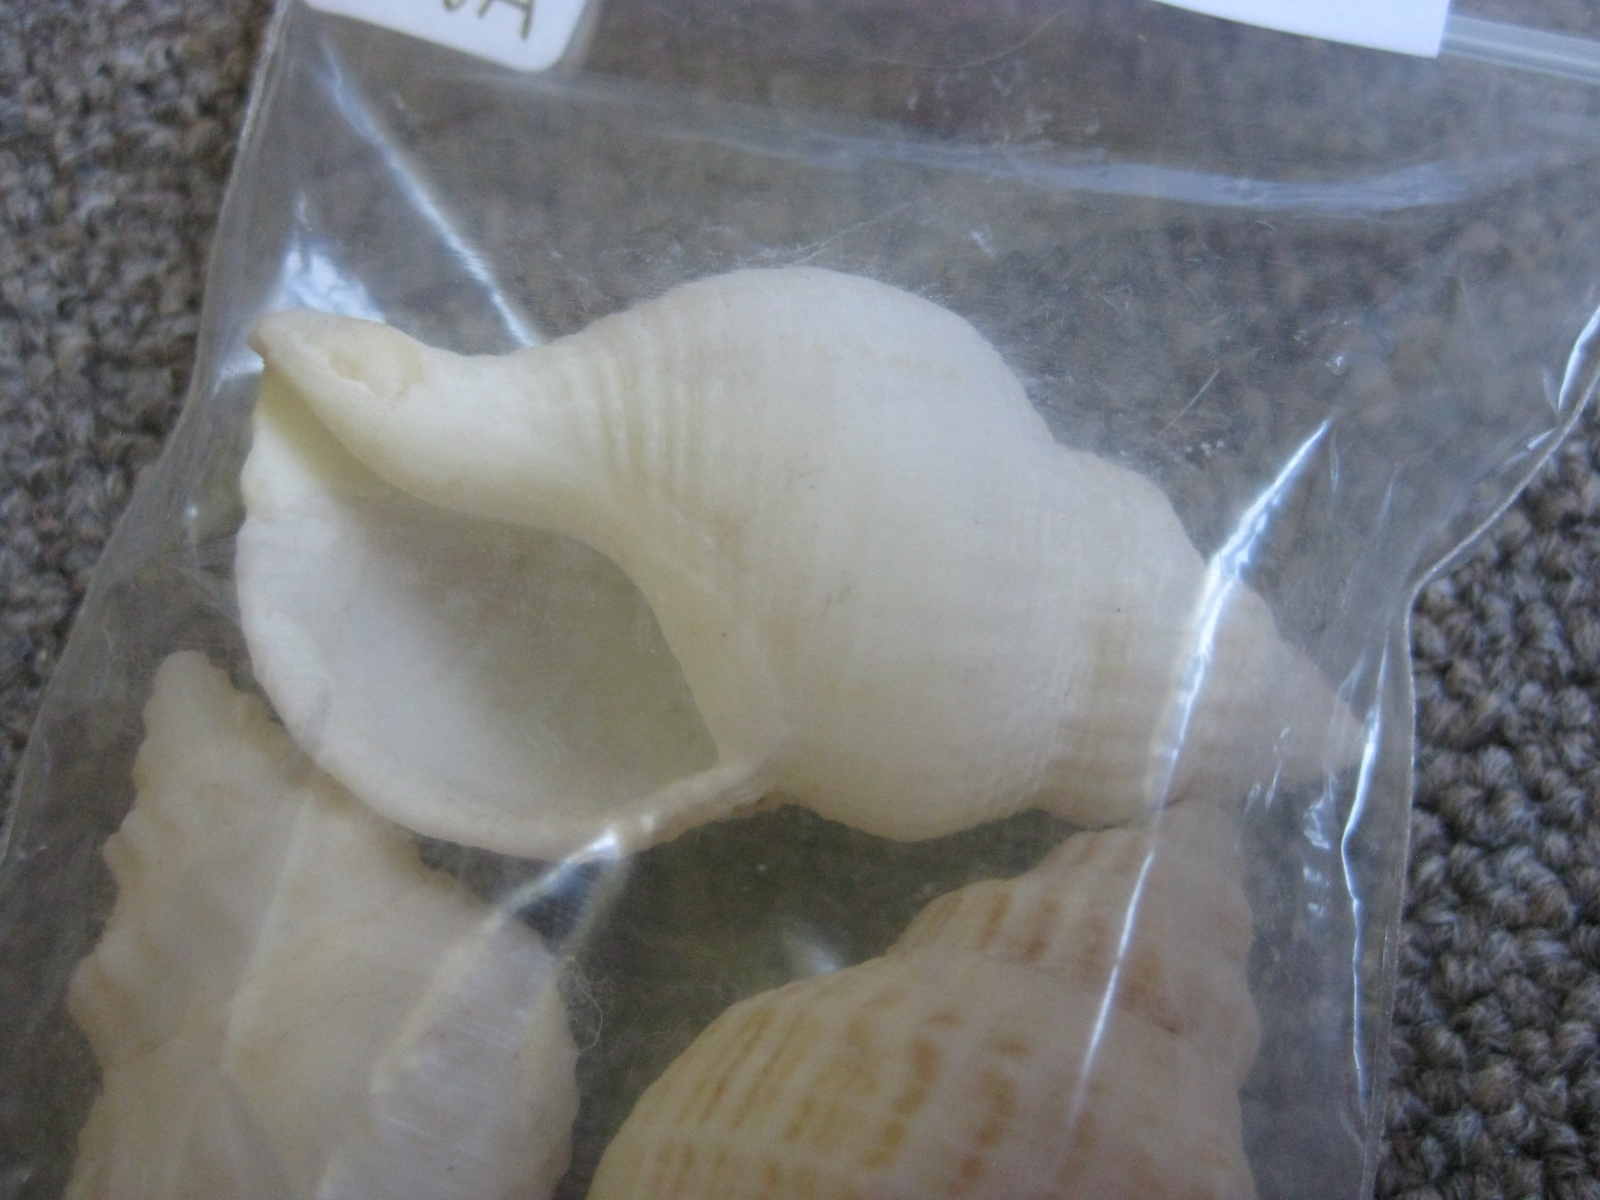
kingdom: Animalia
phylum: Mollusca
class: Gastropoda
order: Neogastropoda
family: Prosiphonidae
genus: Austrofusus
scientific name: Austrofusus glans
